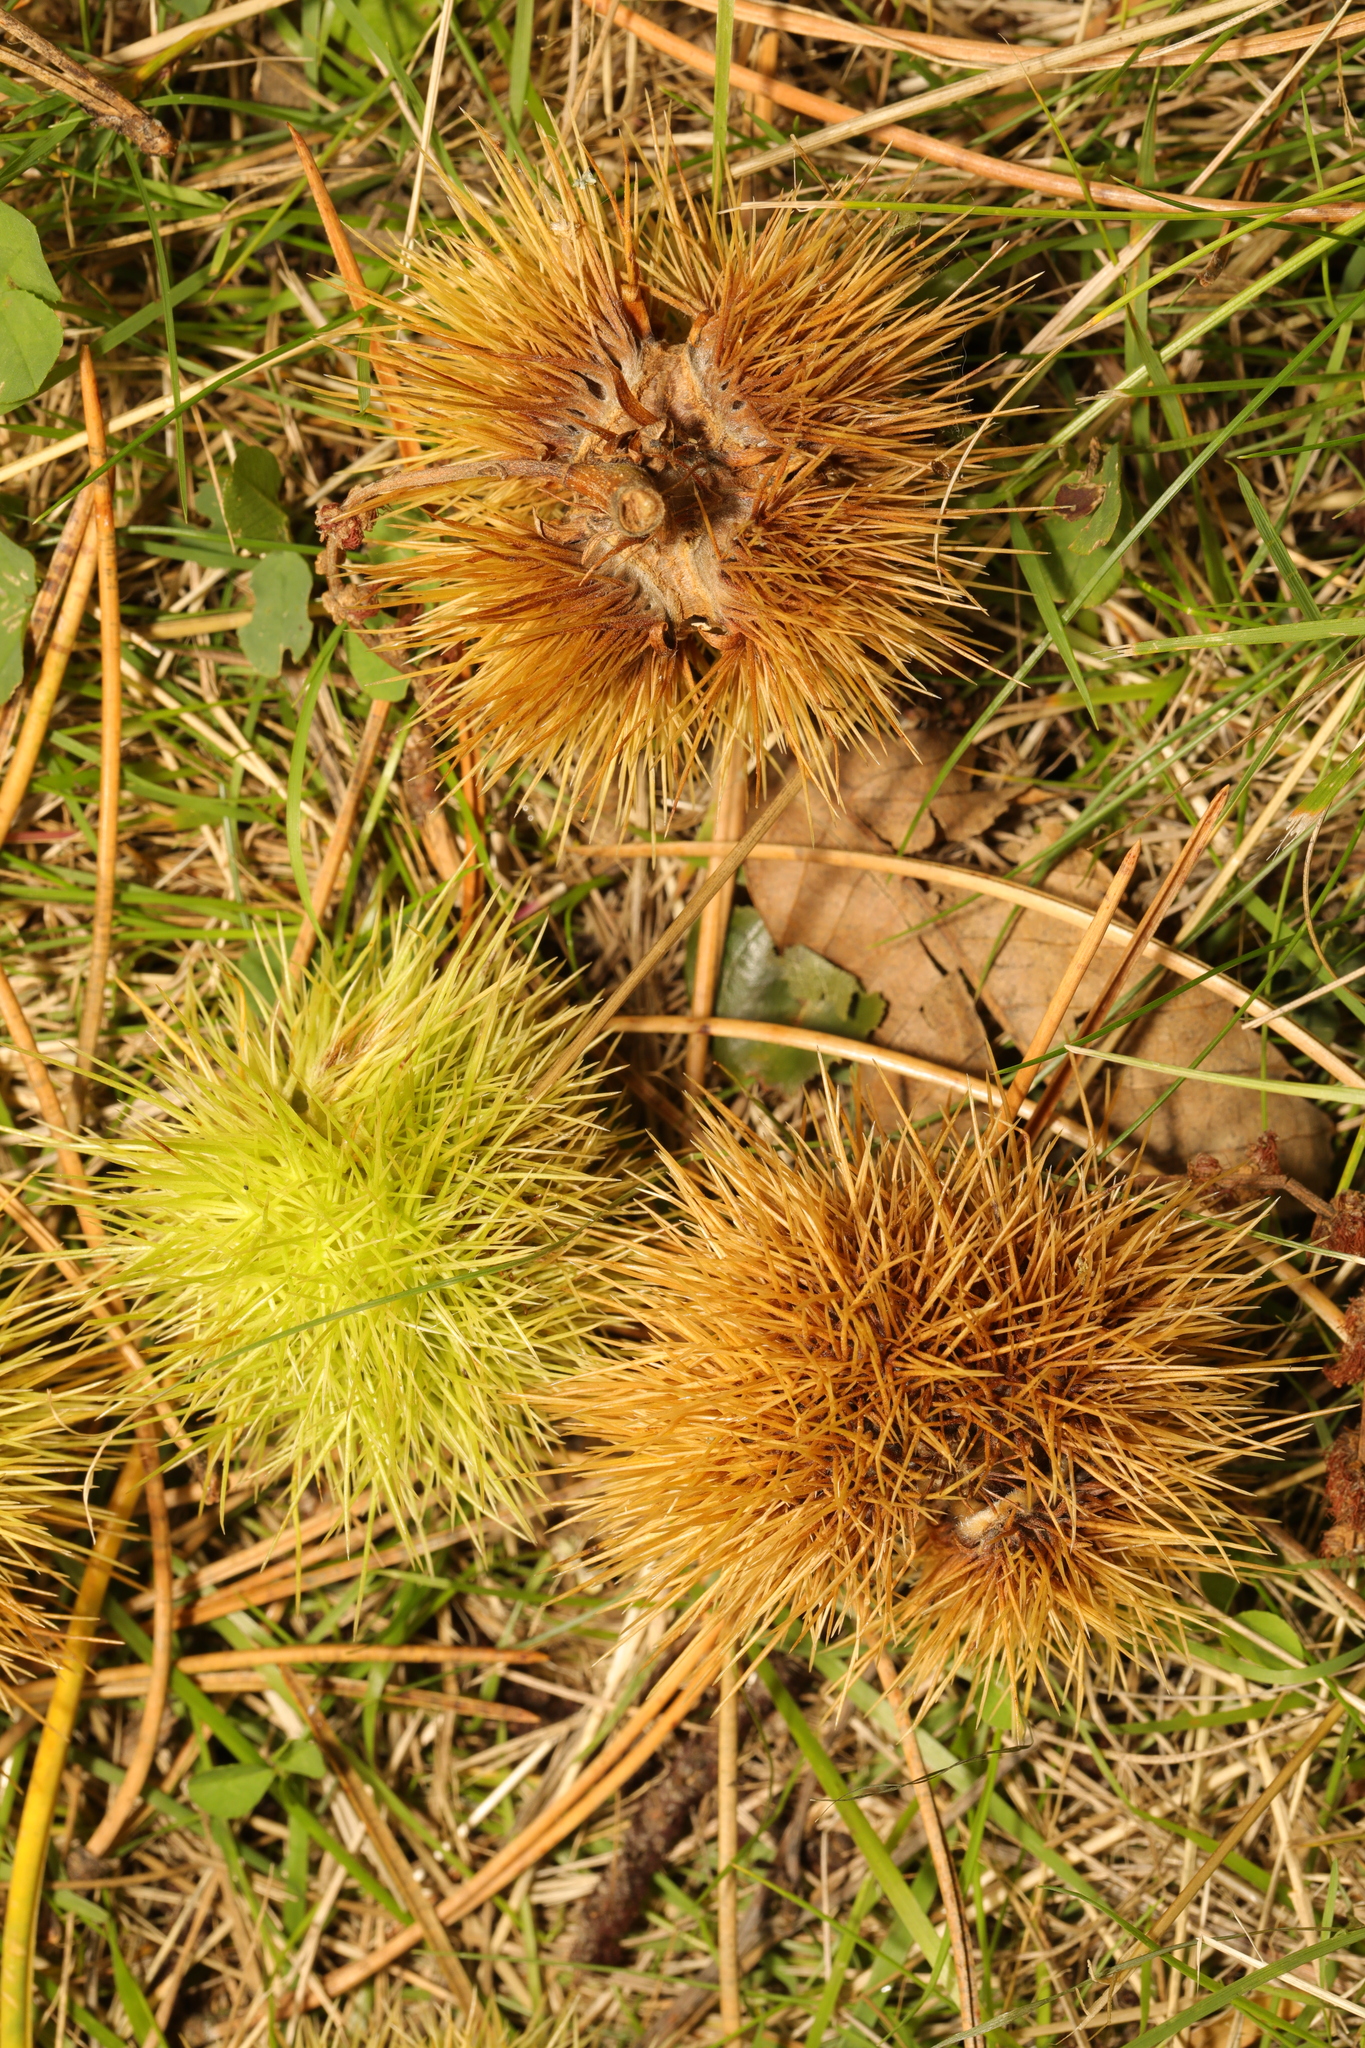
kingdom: Plantae
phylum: Tracheophyta
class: Magnoliopsida
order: Fagales
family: Fagaceae
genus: Castanea
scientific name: Castanea sativa
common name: Sweet chestnut
